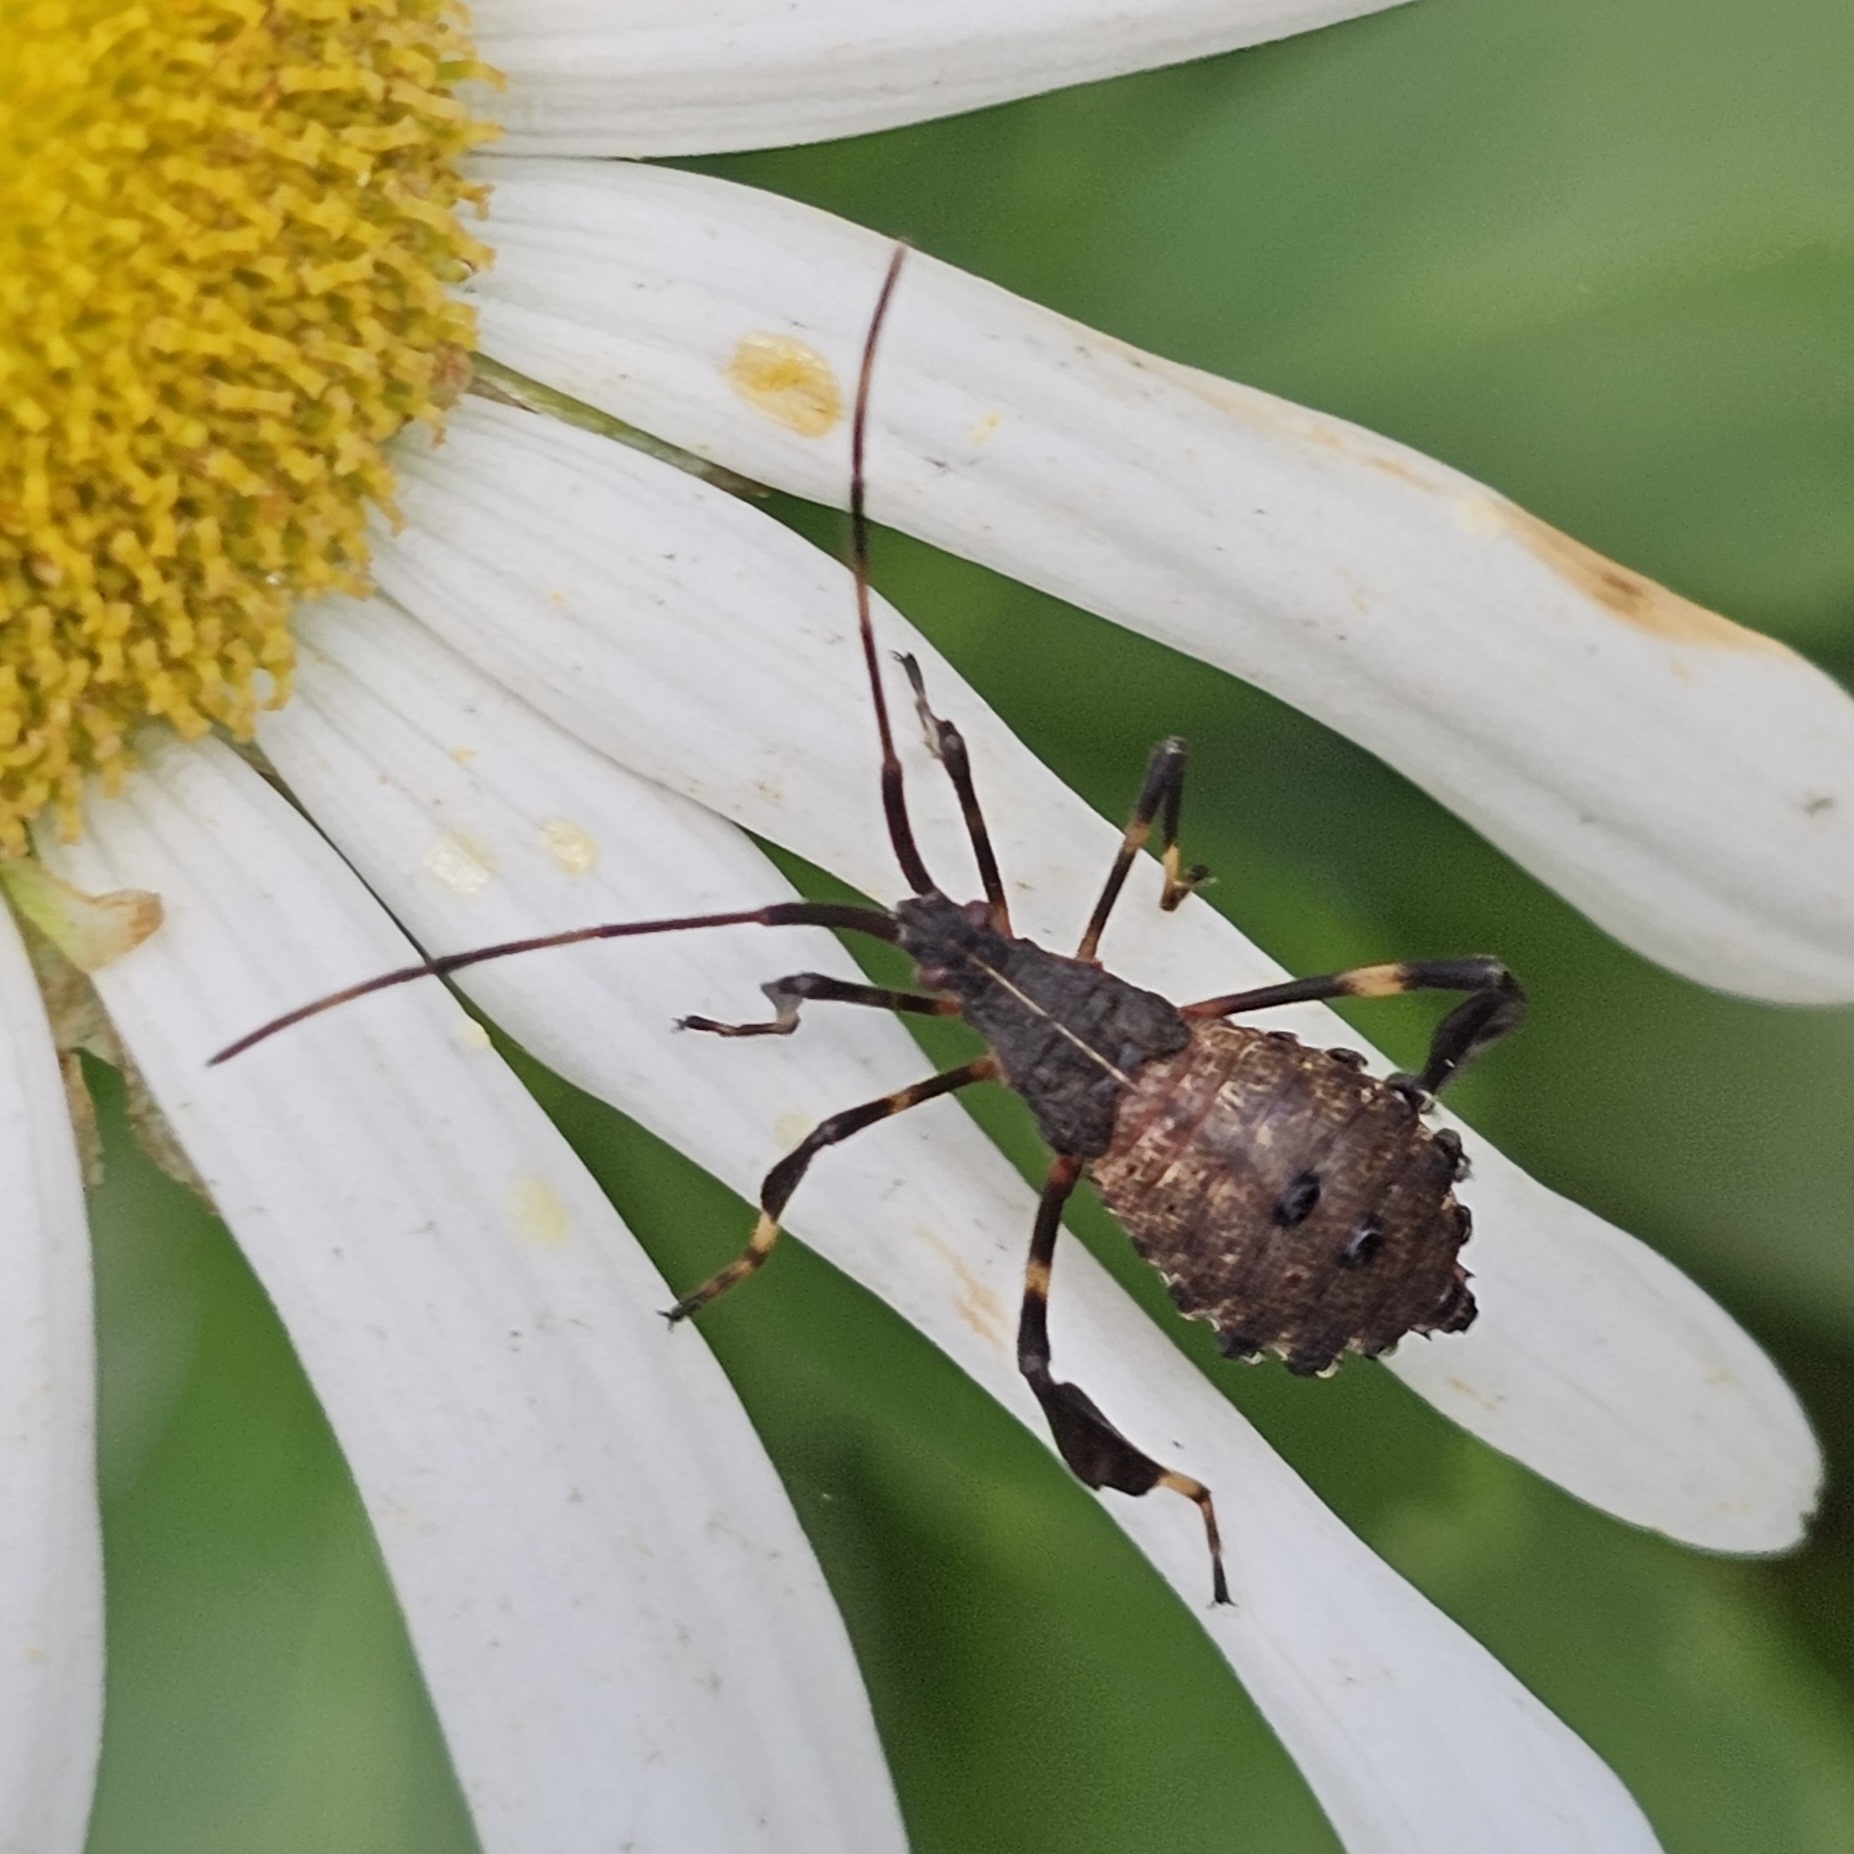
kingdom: Animalia
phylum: Arthropoda
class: Insecta
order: Hemiptera
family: Coreidae
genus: Acanthocephala
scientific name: Acanthocephala terminalis
